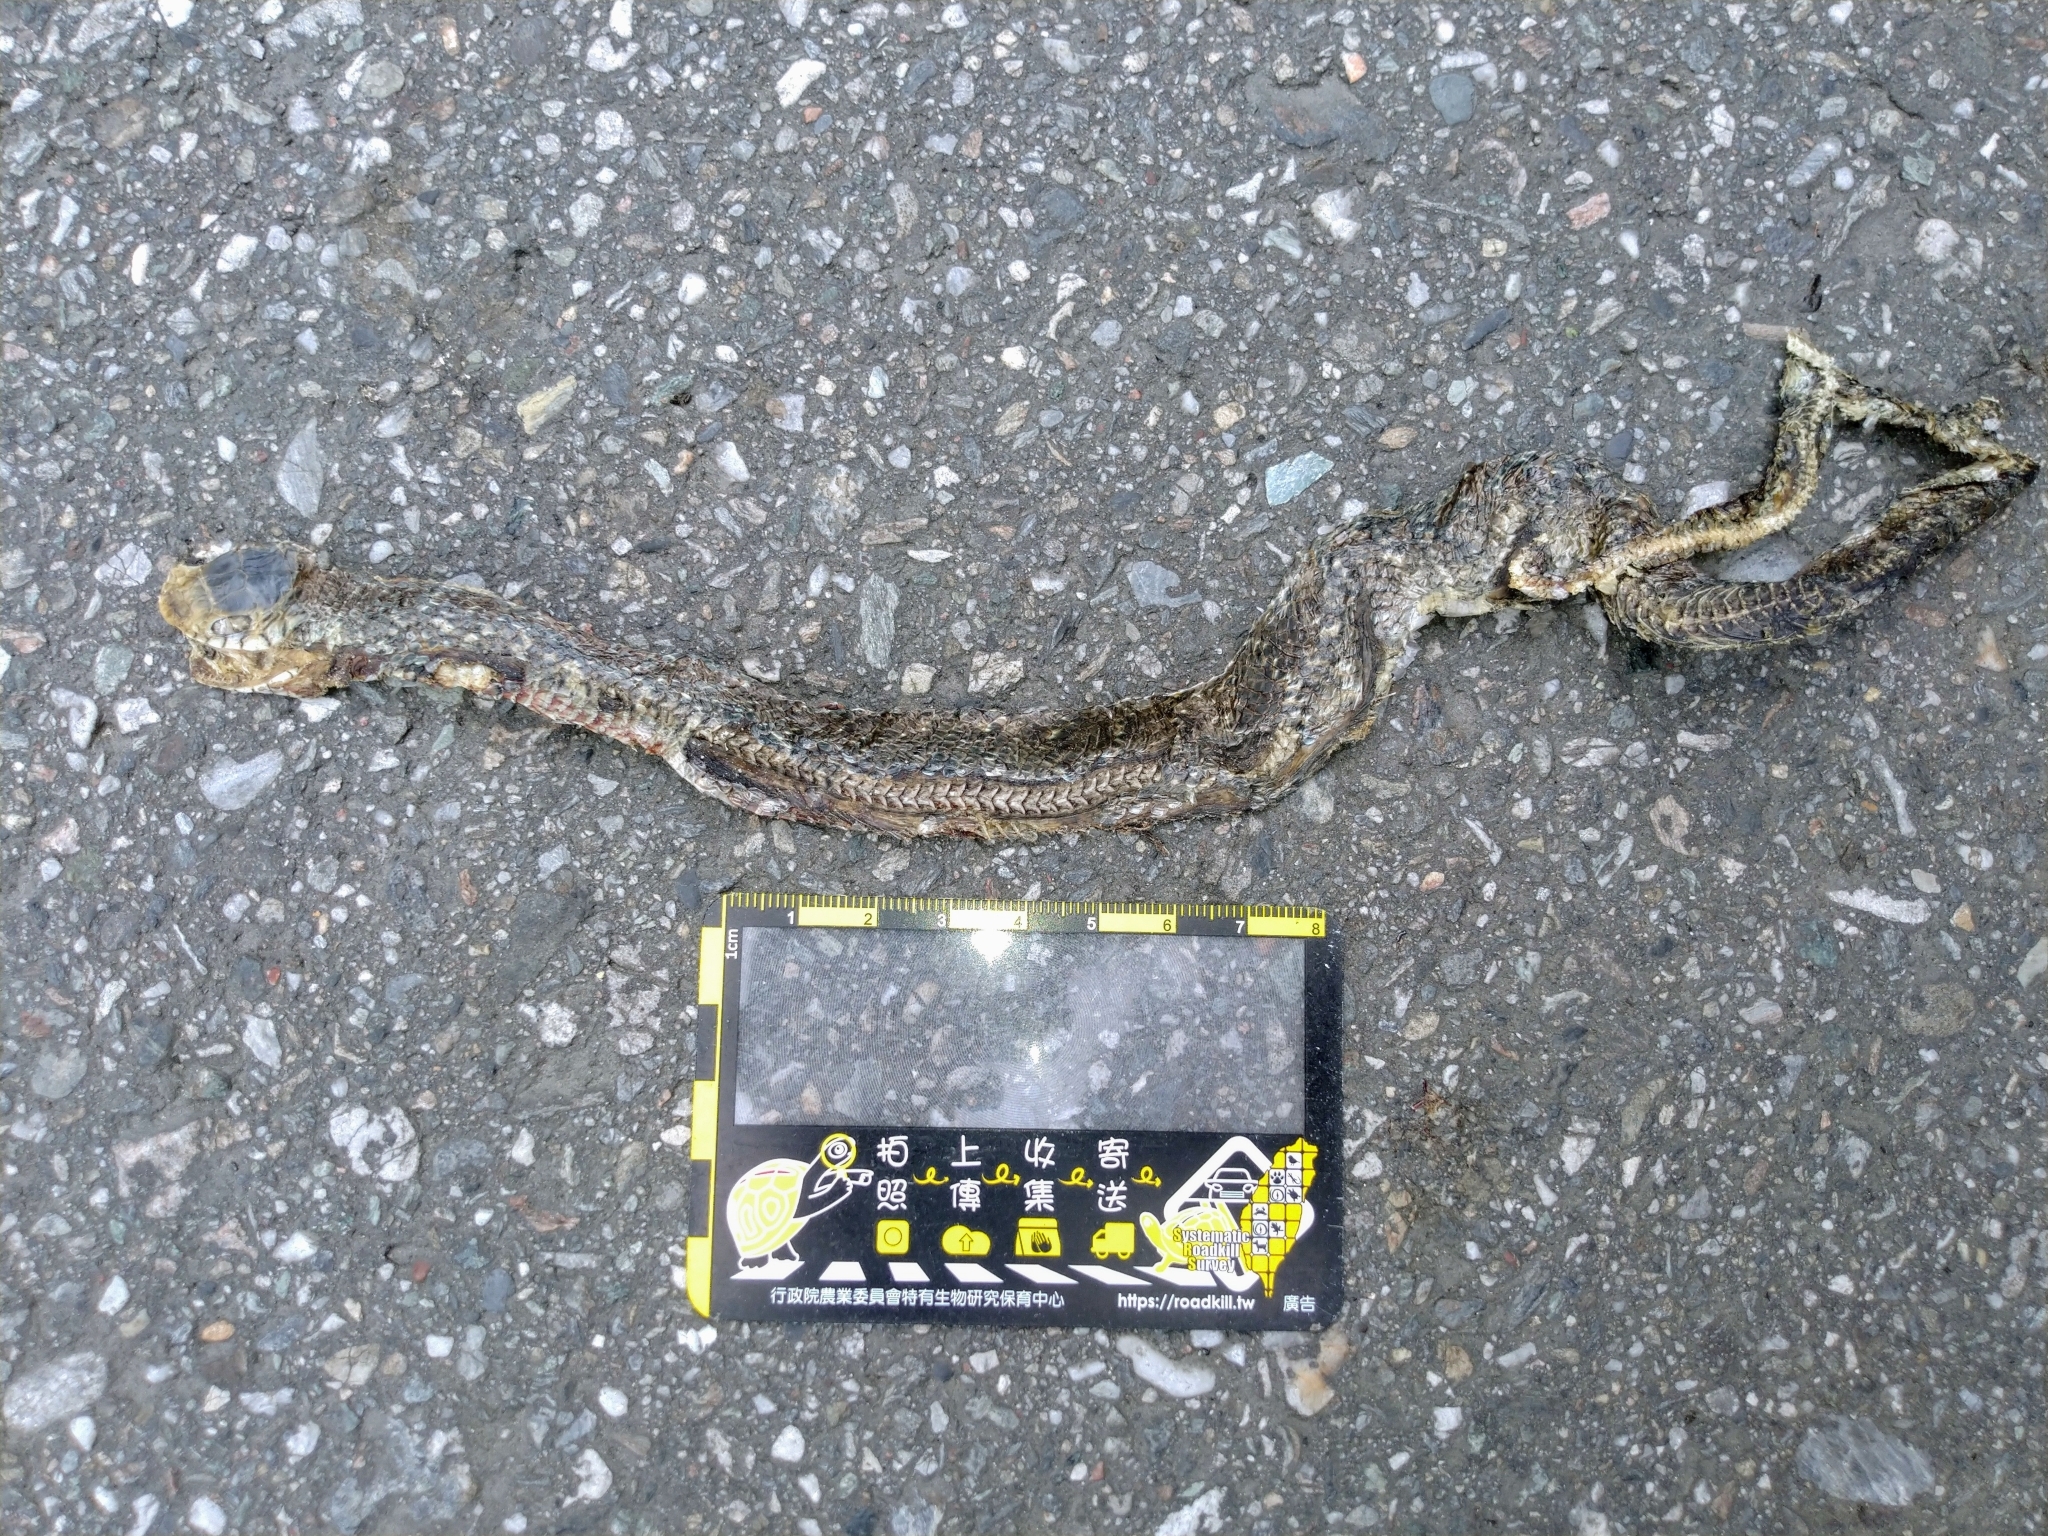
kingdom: Animalia
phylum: Chordata
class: Squamata
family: Colubridae
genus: Ptyas
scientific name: Ptyas mucosa
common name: Oriental ratsnake
